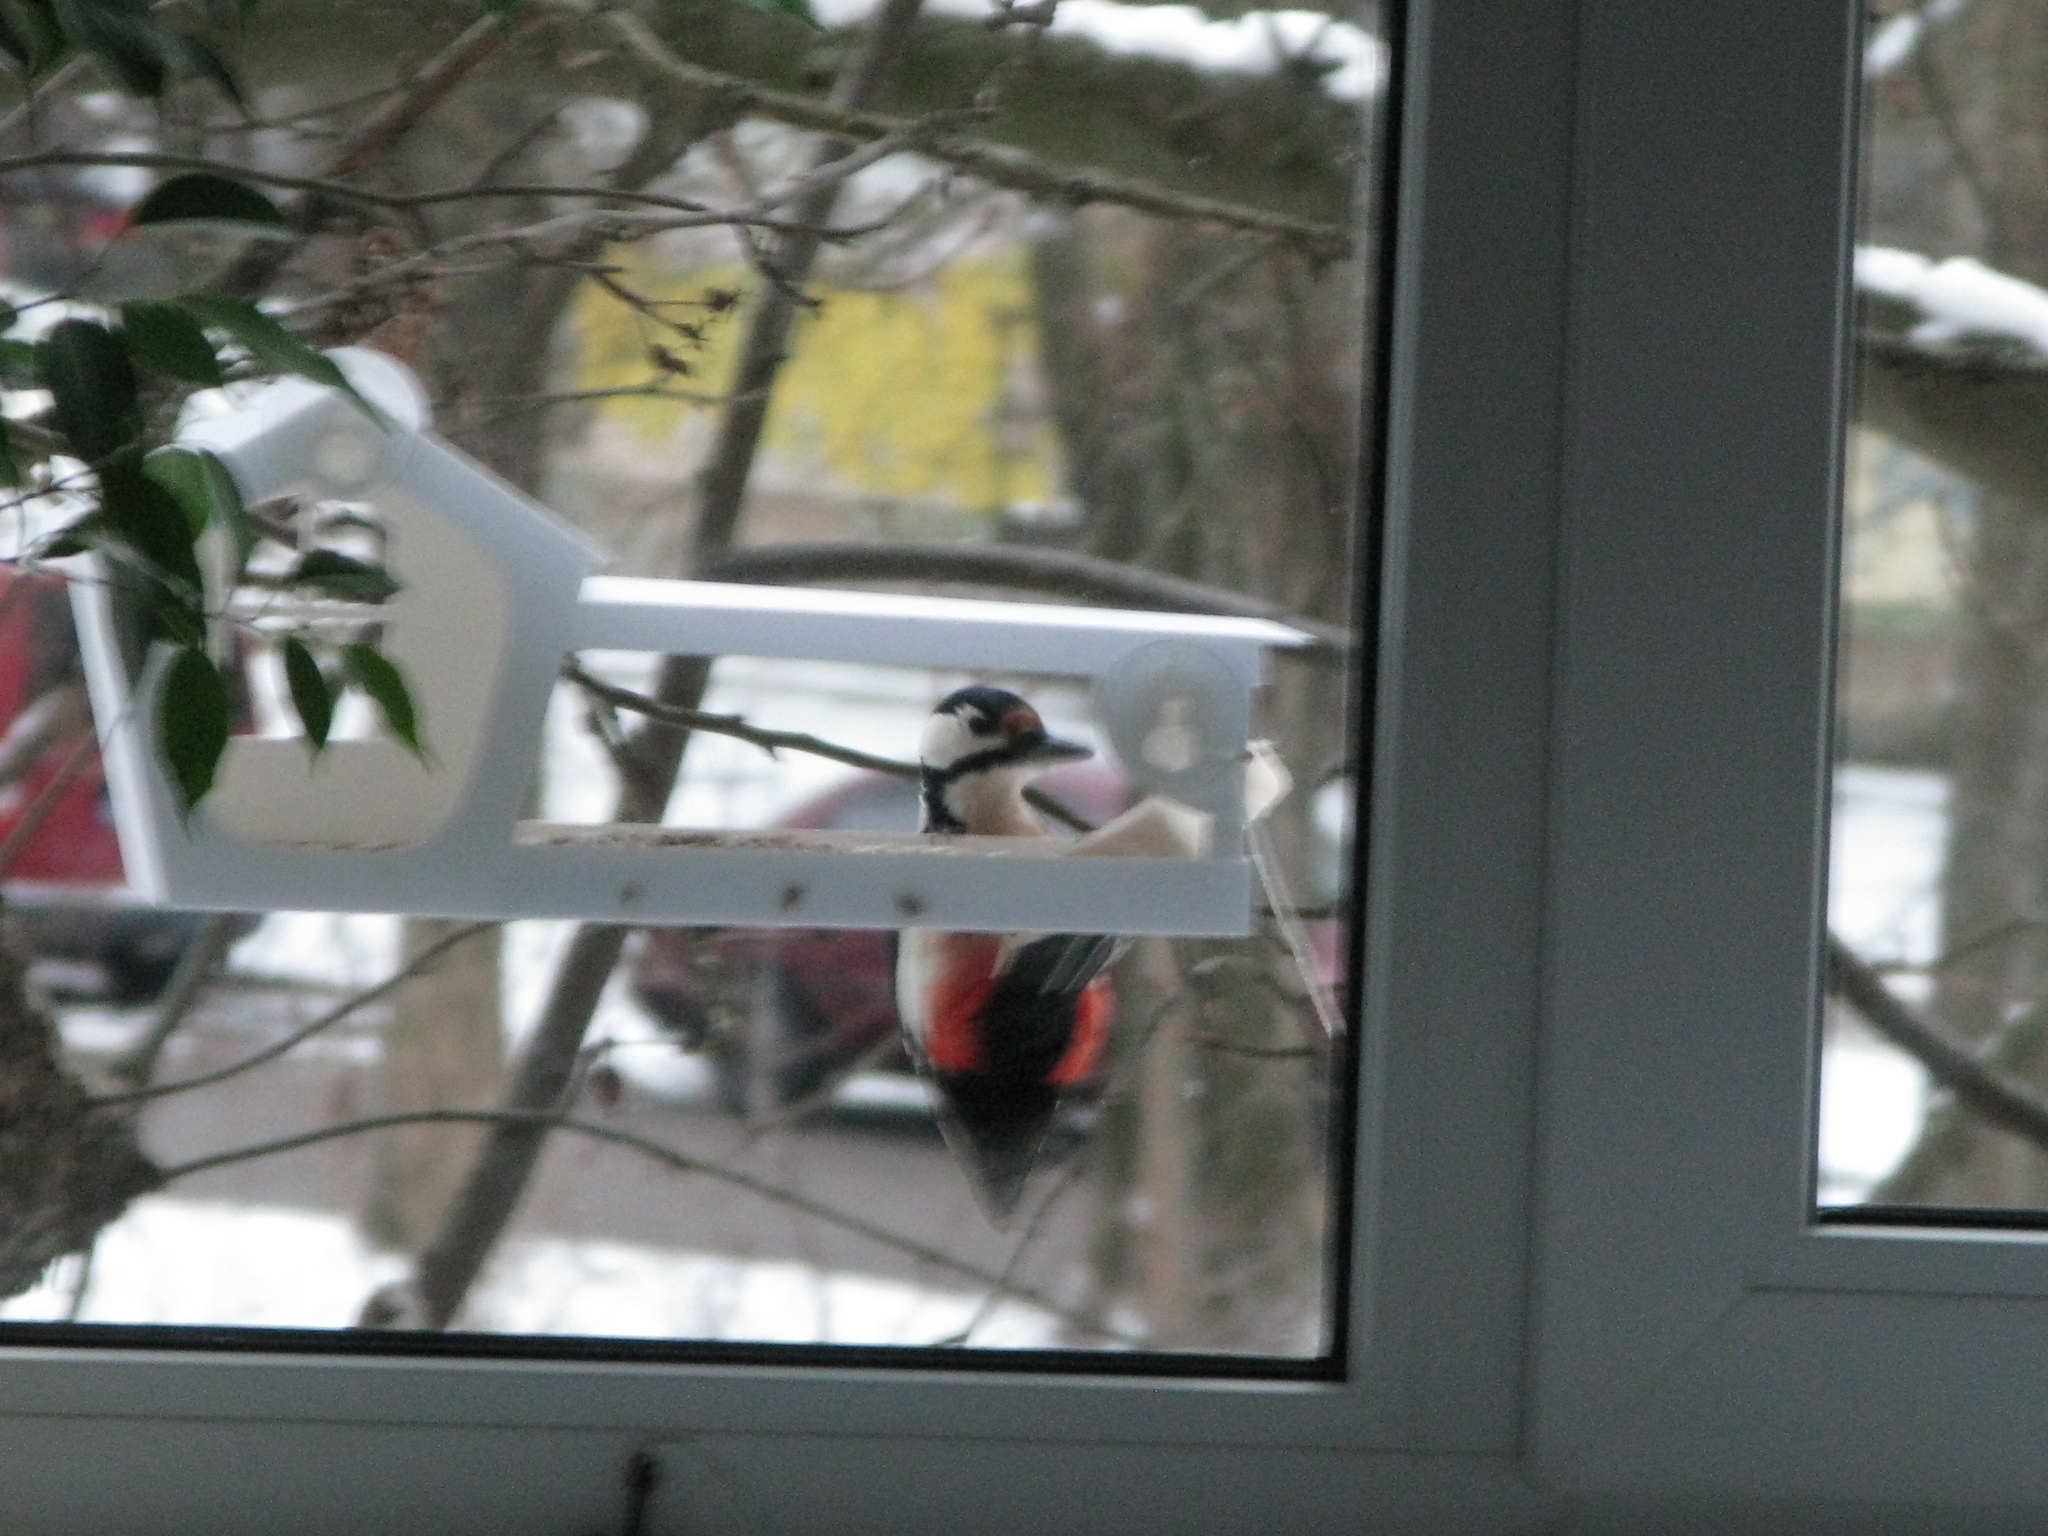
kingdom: Animalia
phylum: Chordata
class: Aves
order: Piciformes
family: Picidae
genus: Dendrocopos
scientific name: Dendrocopos major
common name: Great spotted woodpecker
